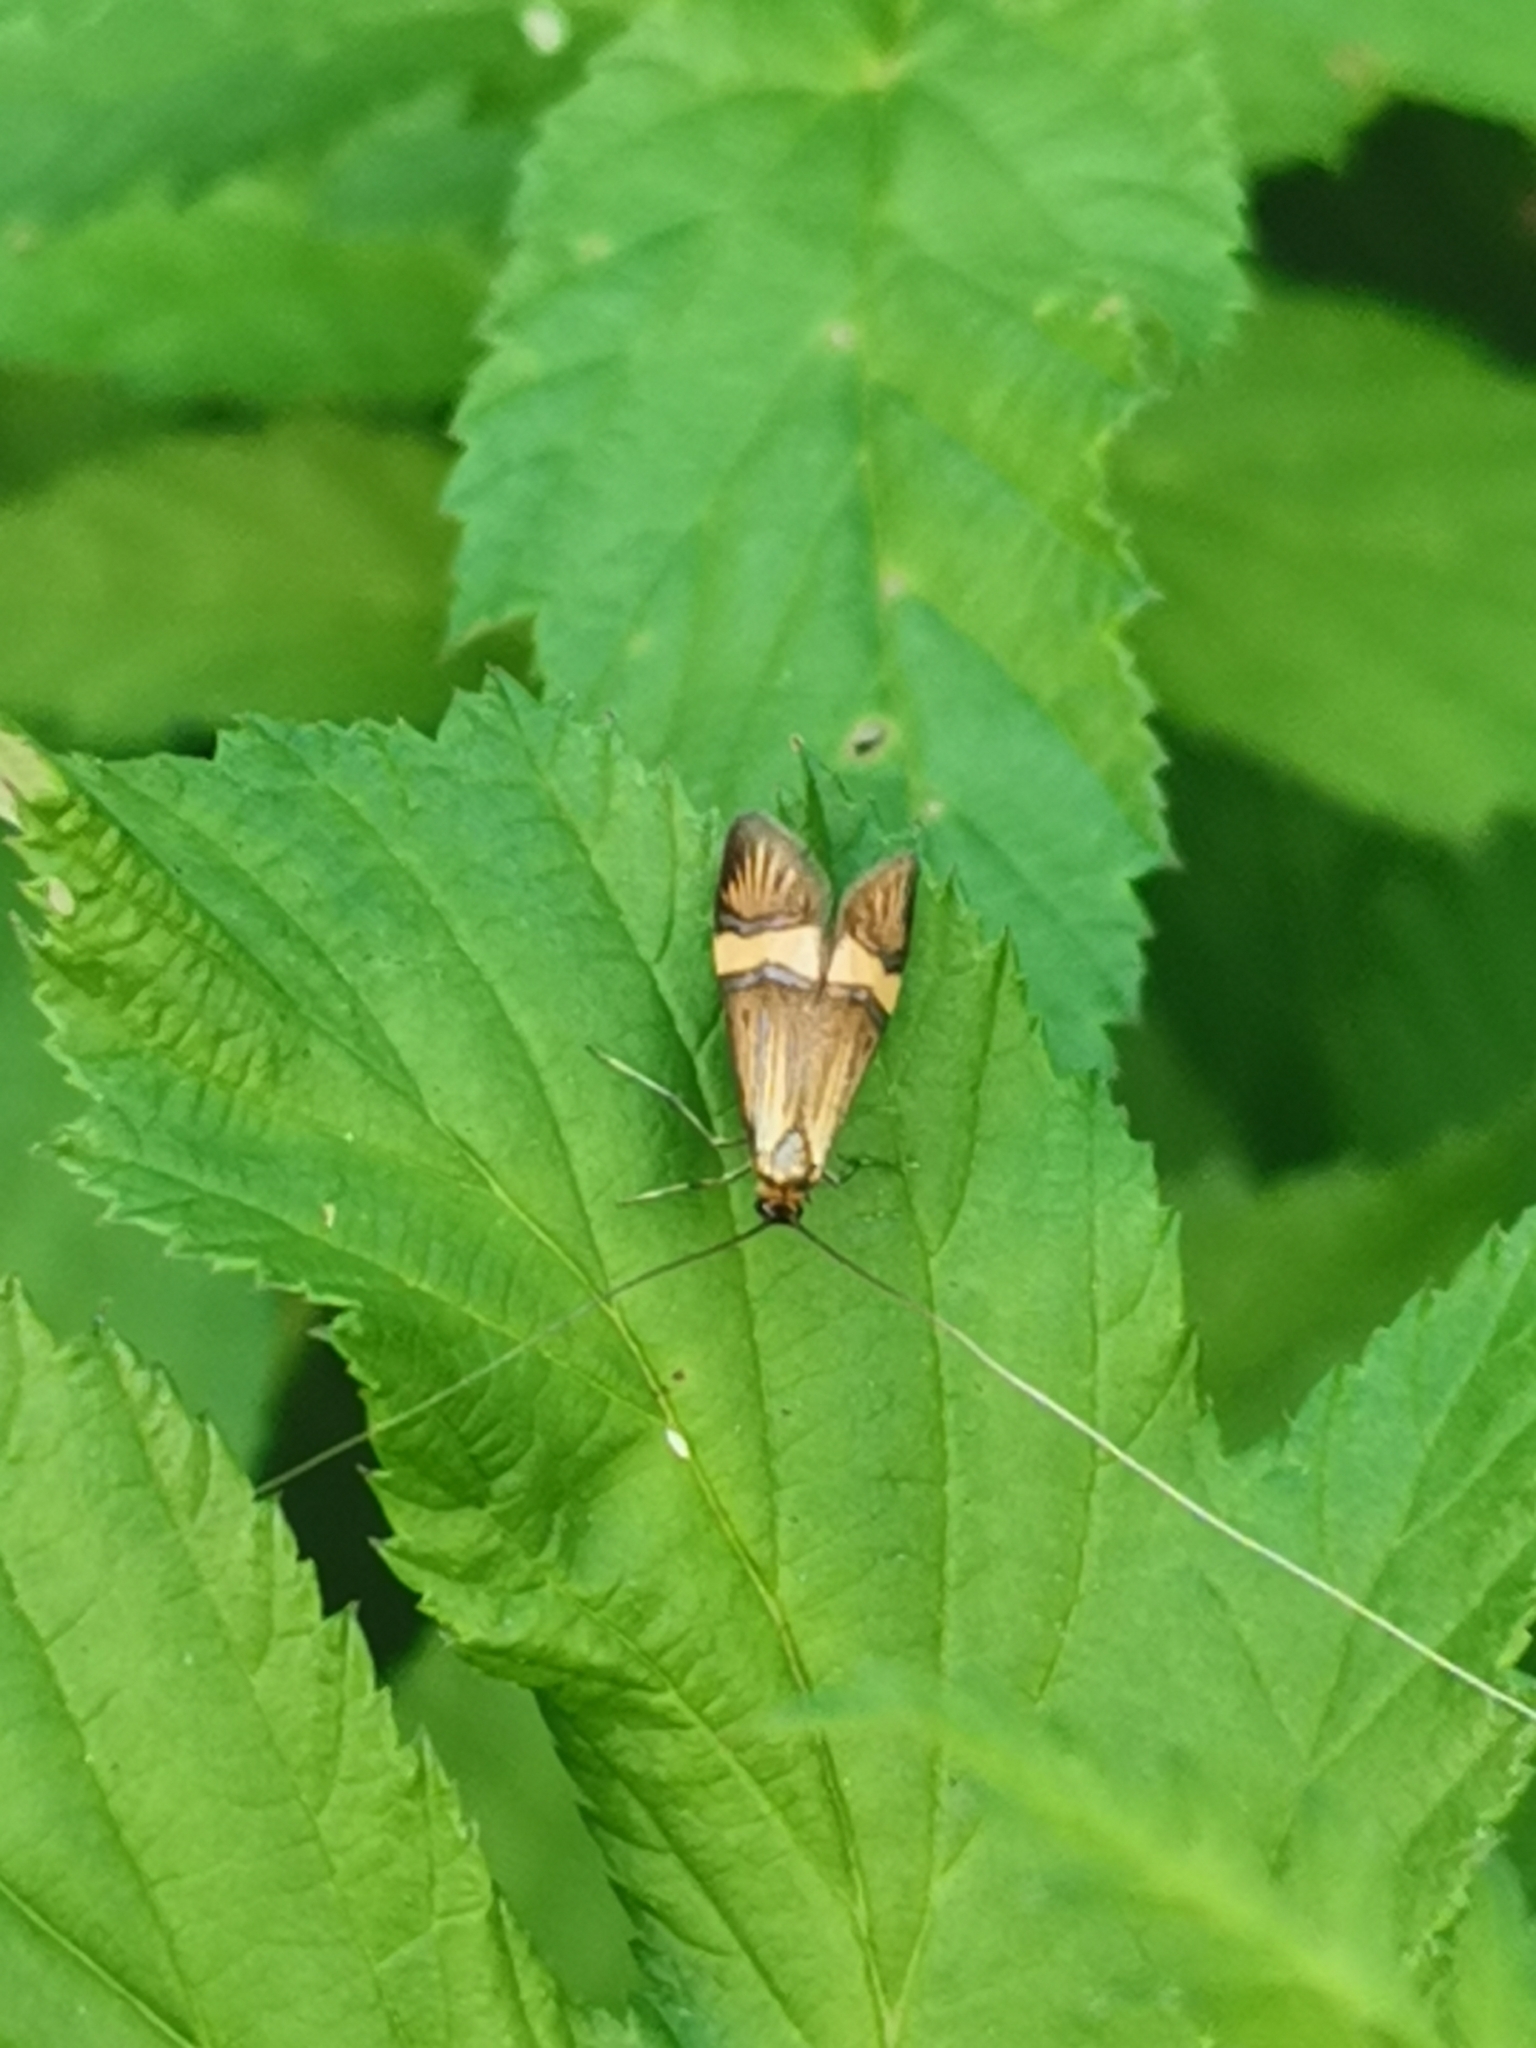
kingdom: Animalia
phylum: Arthropoda
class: Insecta
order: Lepidoptera
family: Adelidae
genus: Nemophora
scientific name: Nemophora degeerella
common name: Yellow-barred long-horn
